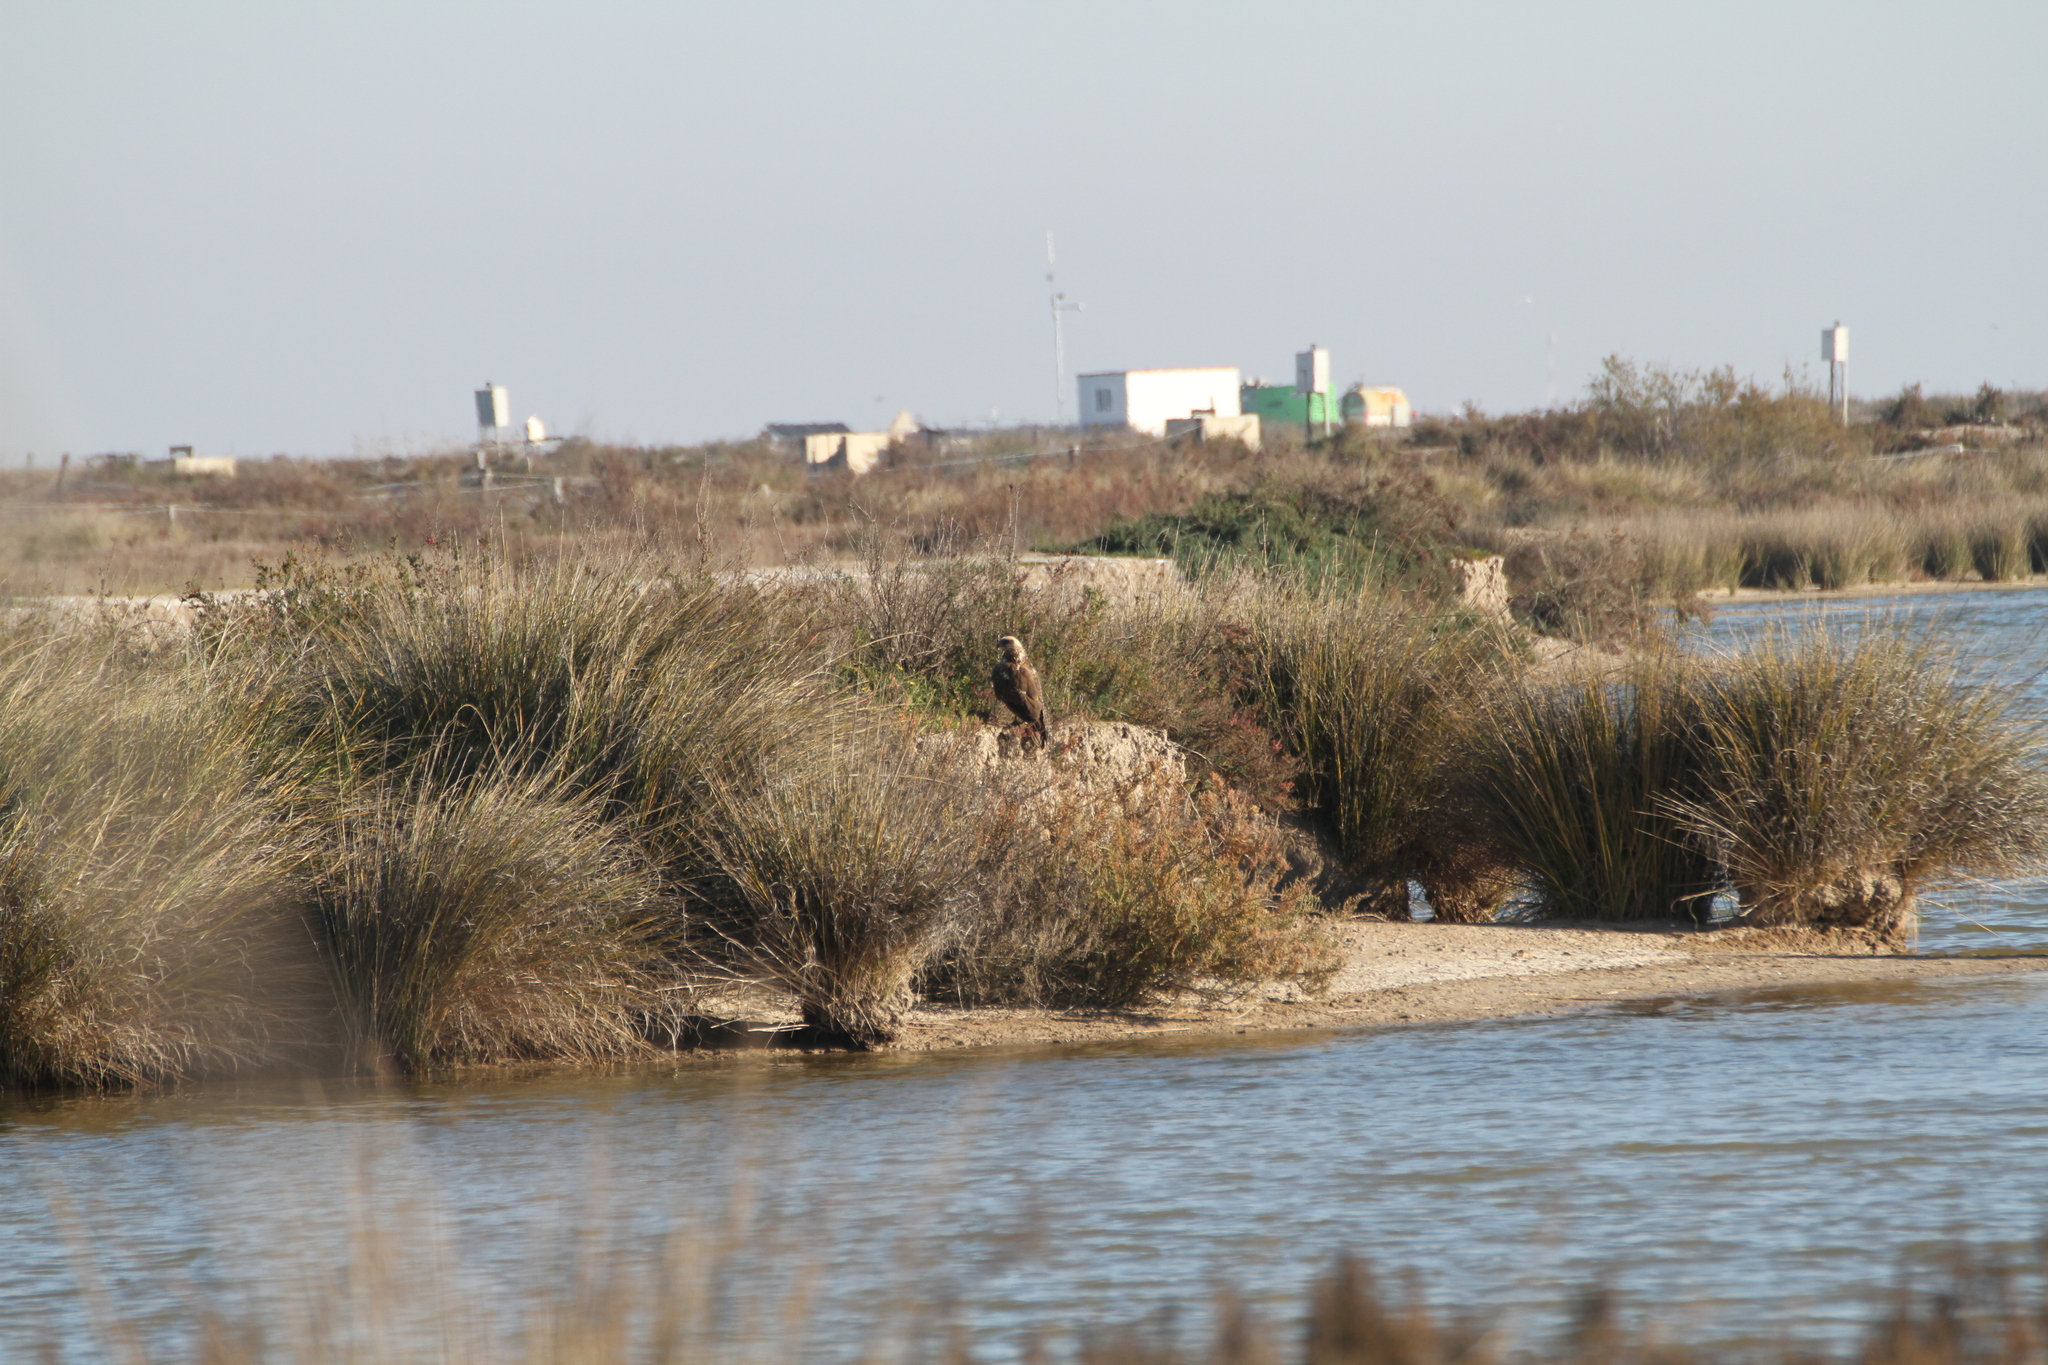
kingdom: Animalia
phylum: Chordata
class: Aves
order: Accipitriformes
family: Accipitridae
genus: Circus
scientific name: Circus aeruginosus
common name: Western marsh harrier
